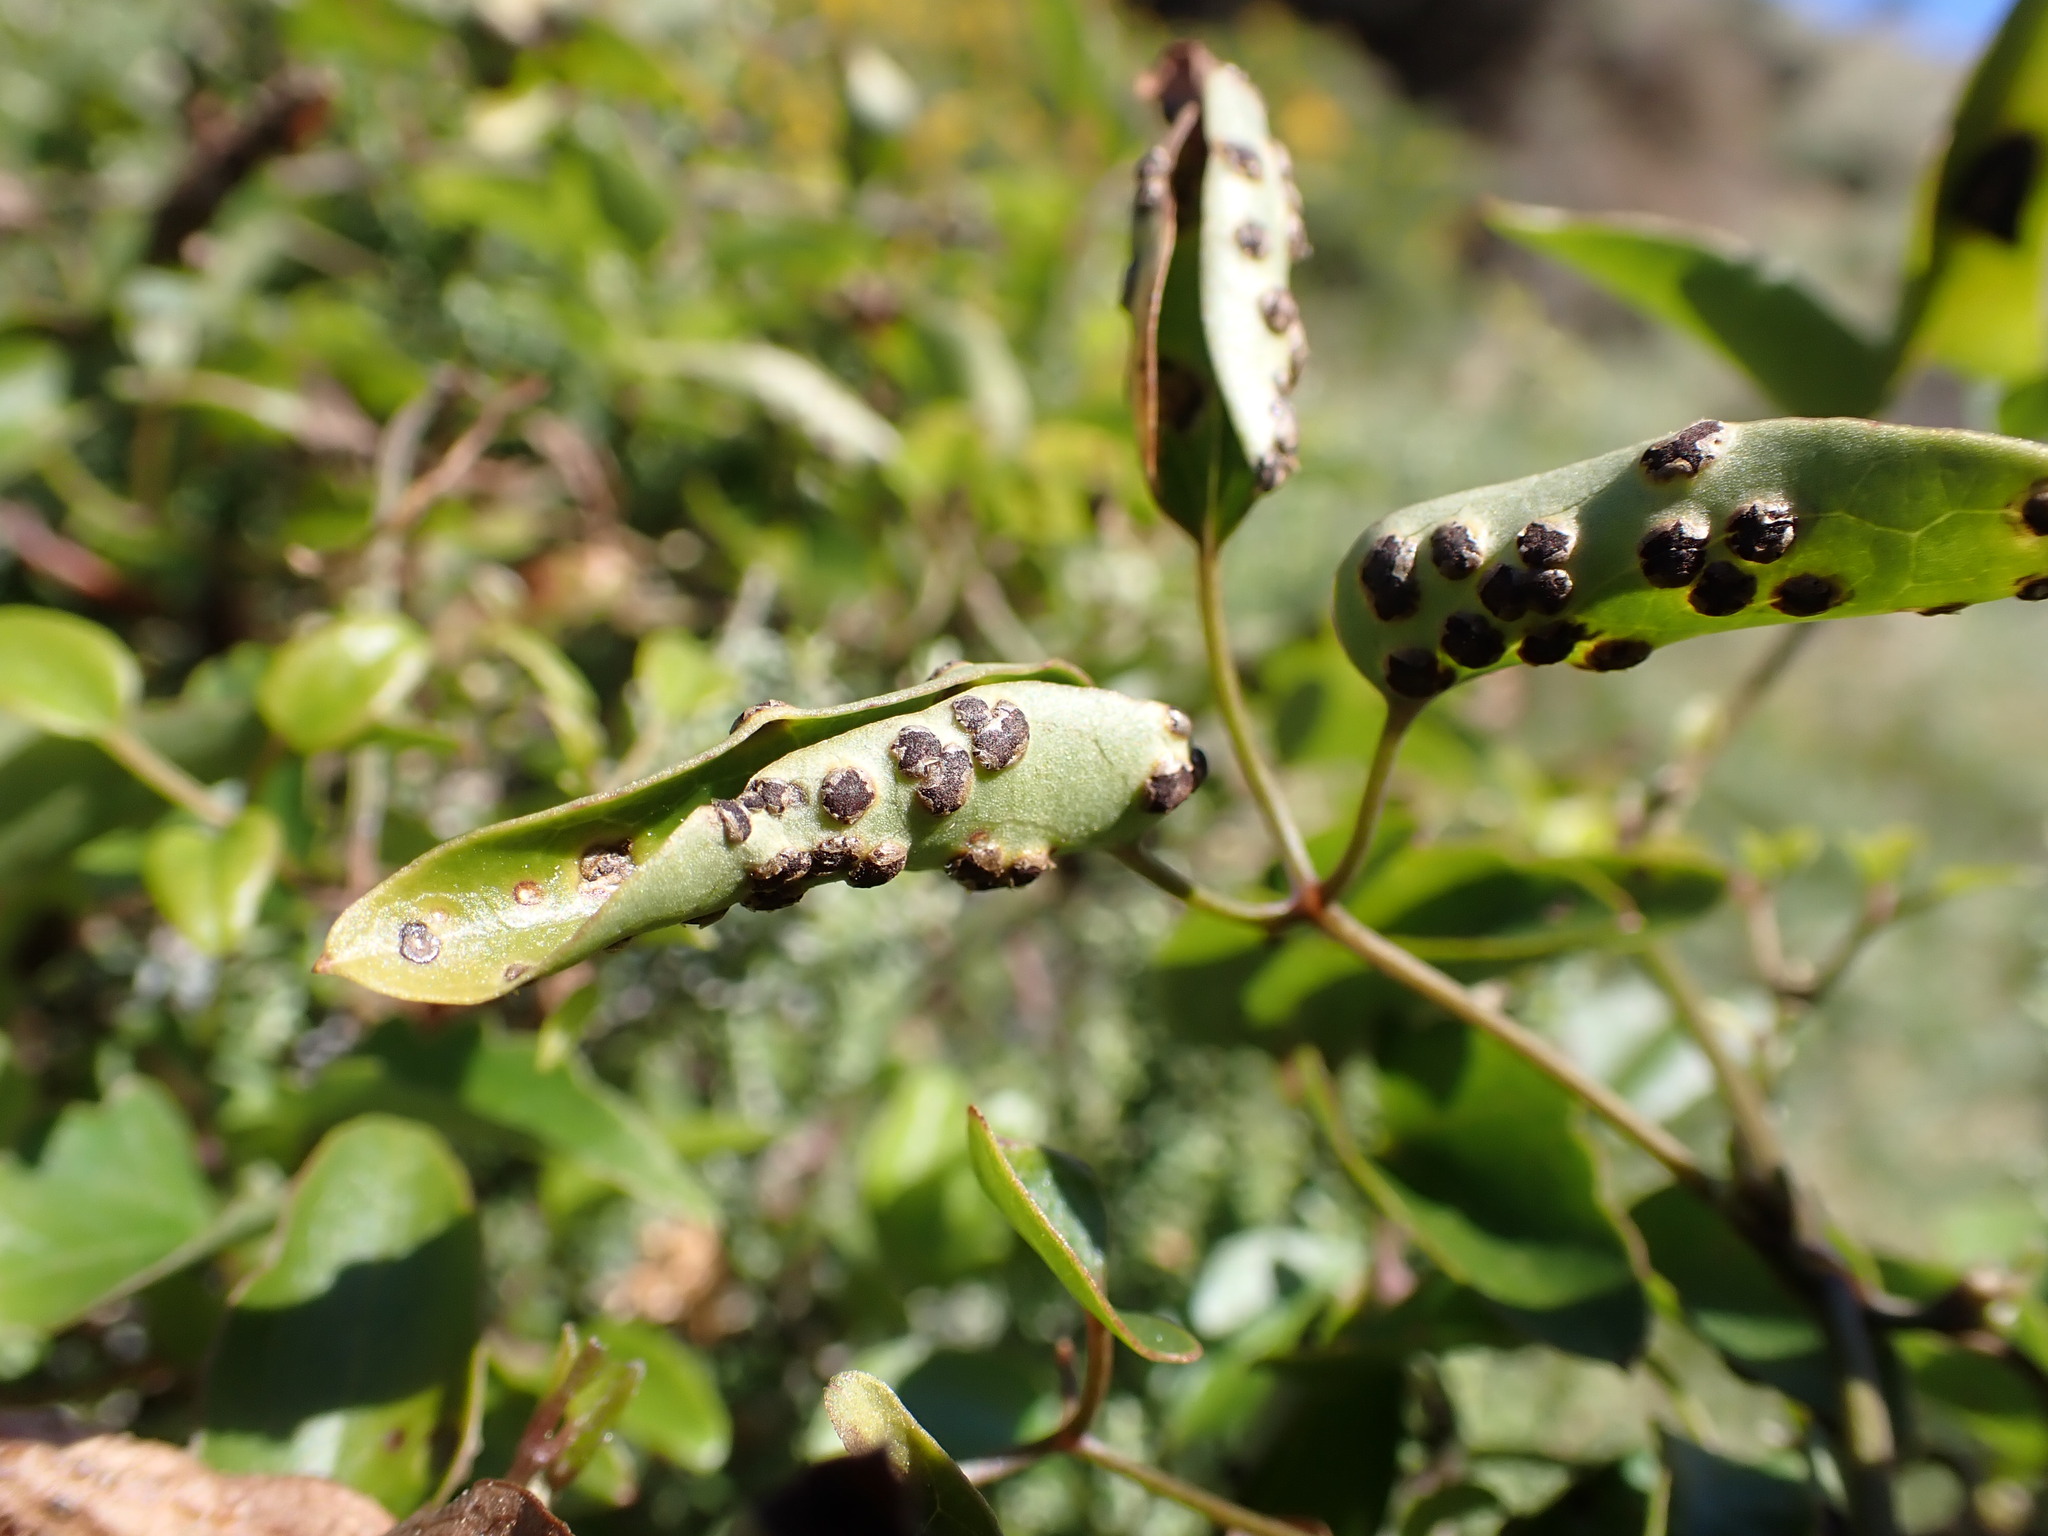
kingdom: Fungi
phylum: Basidiomycota
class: Pucciniomycetes
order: Pucciniales
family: Pucciniaceae
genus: Puccinia
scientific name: Puccinia otagensis
